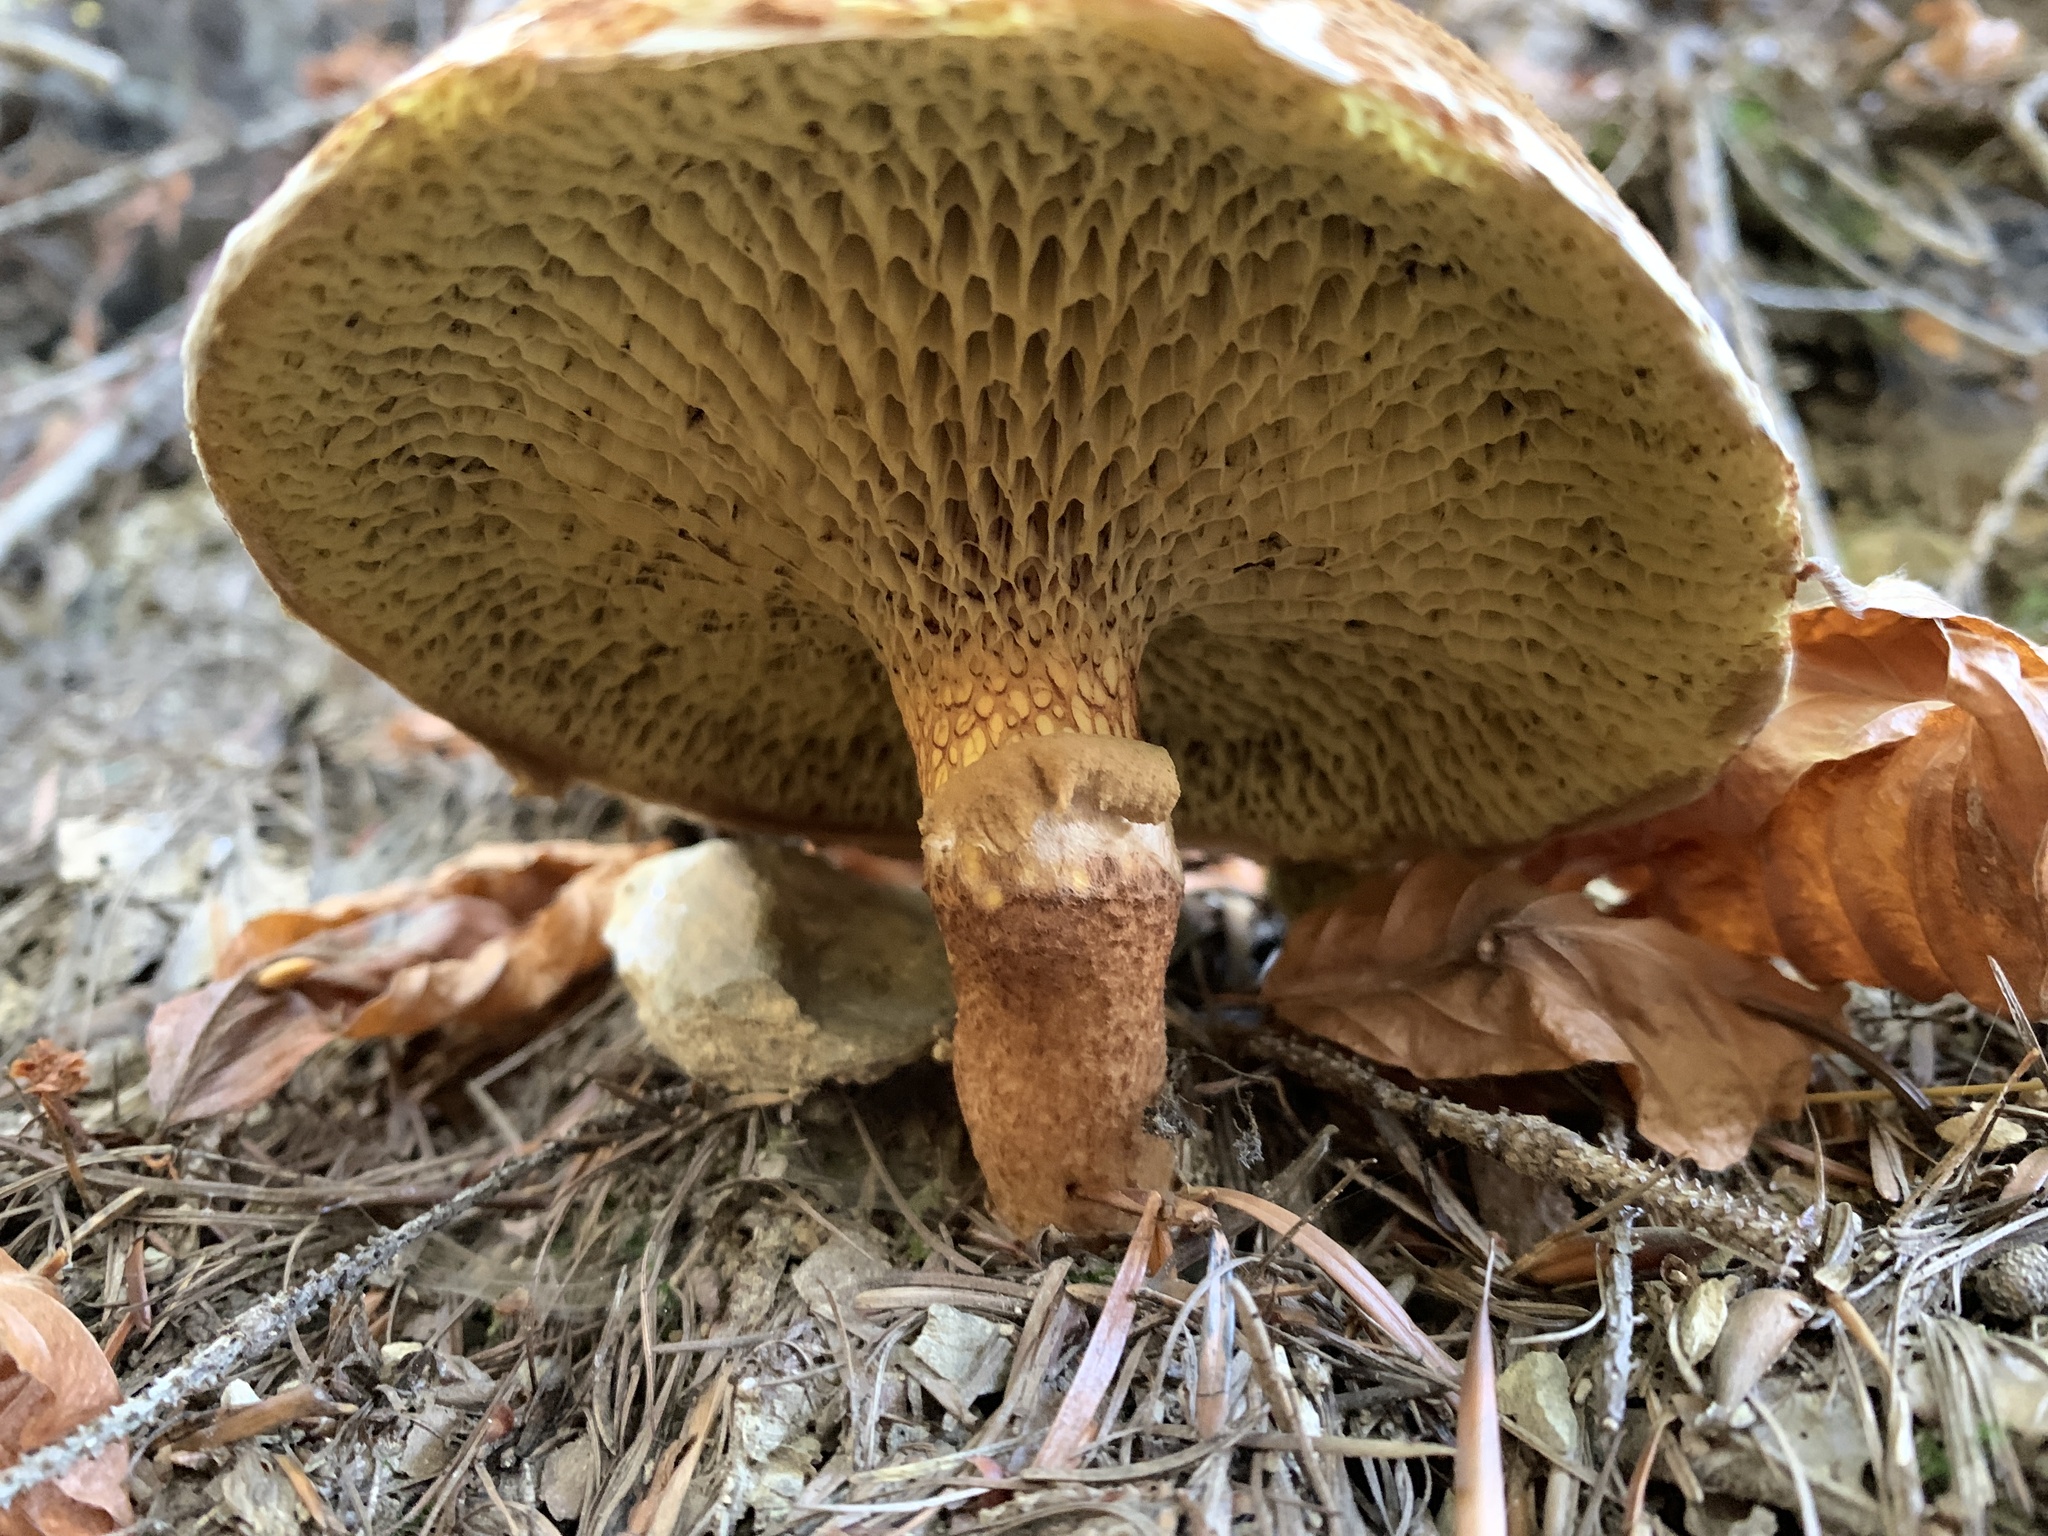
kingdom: Fungi
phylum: Basidiomycota
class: Agaricomycetes
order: Boletales
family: Suillaceae
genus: Suillus
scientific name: Suillus cavipes
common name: Hollow bolete
